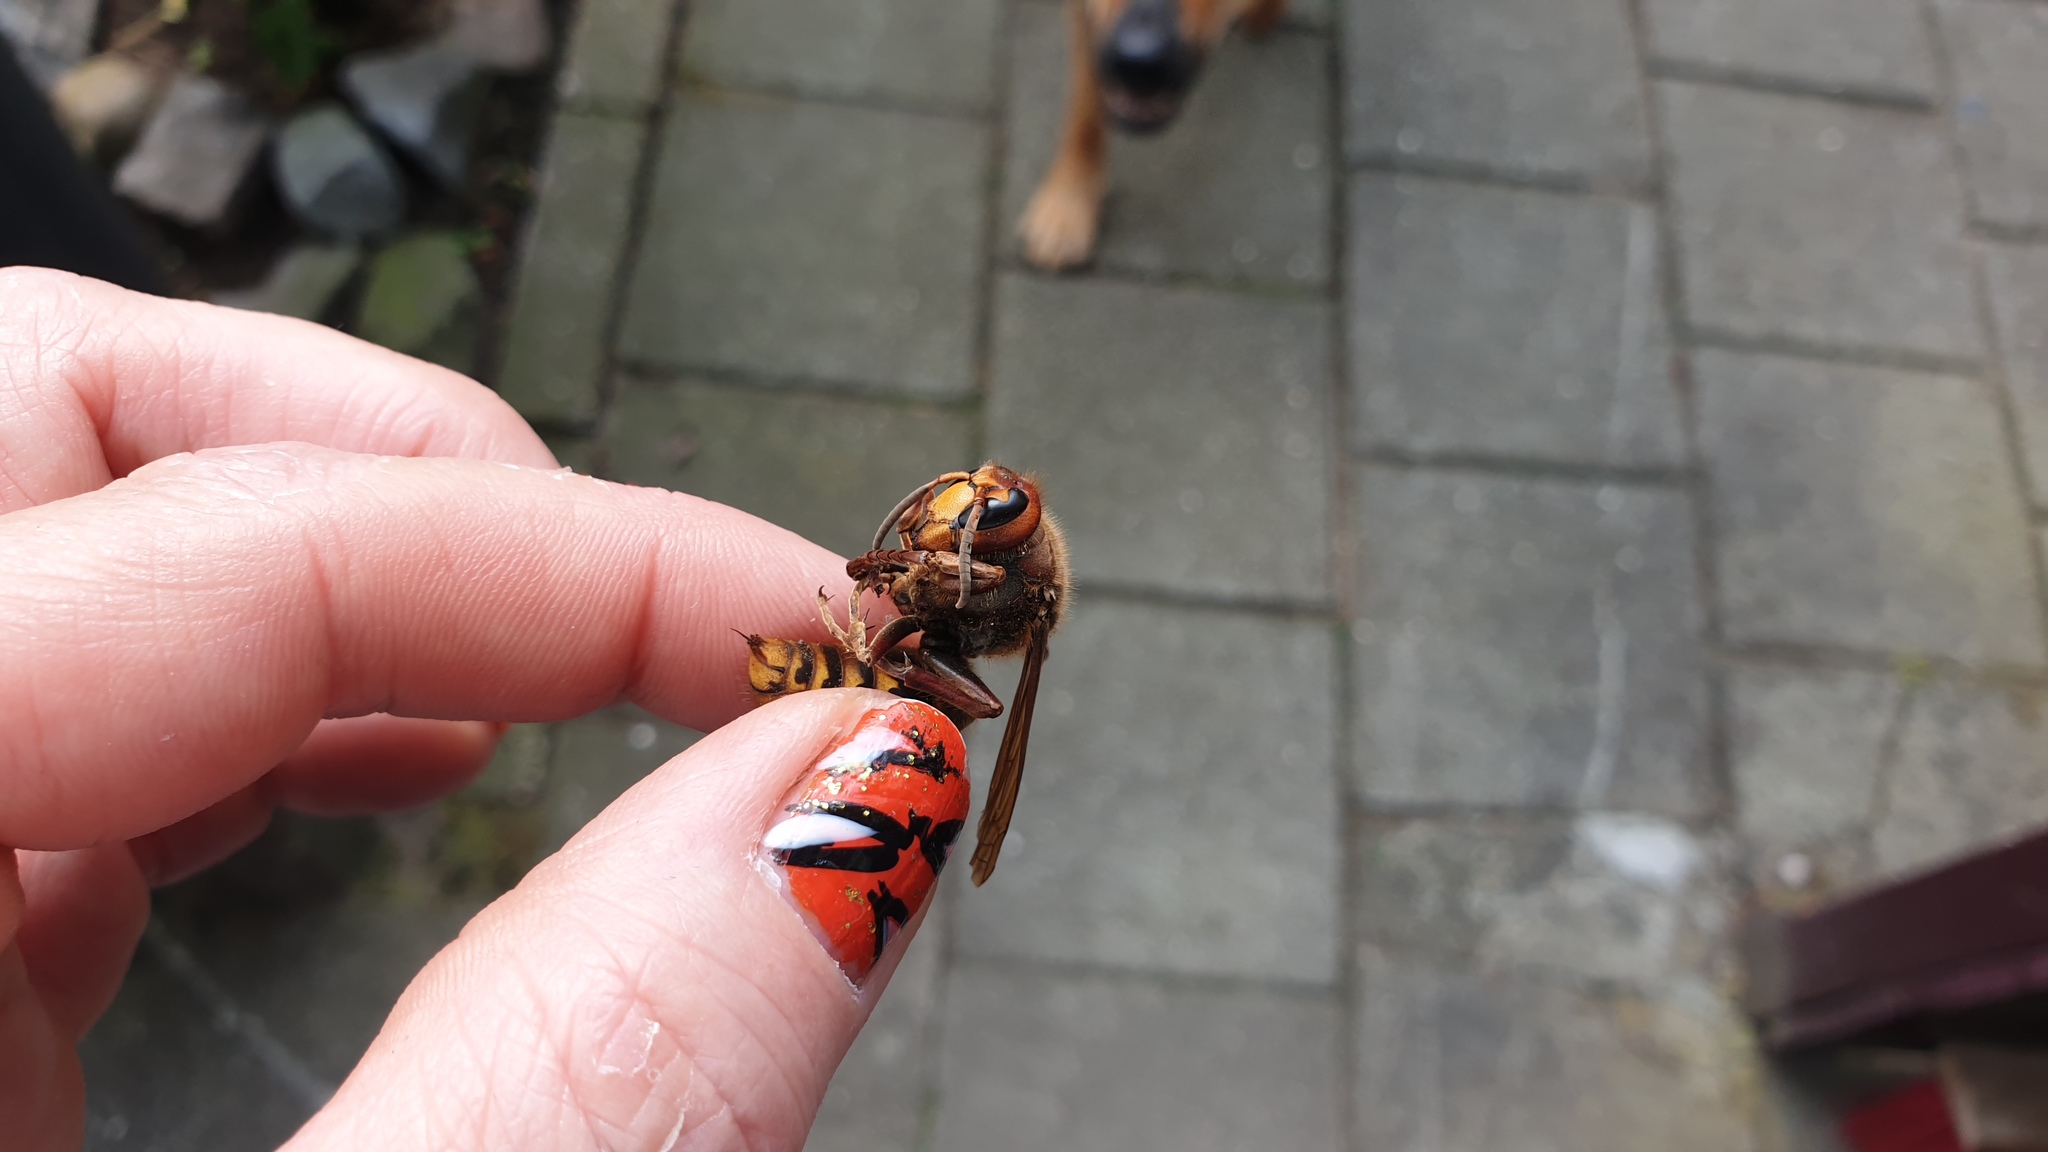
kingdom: Animalia
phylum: Arthropoda
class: Insecta
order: Hymenoptera
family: Vespidae
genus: Vespa
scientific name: Vespa crabro
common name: Hornet
